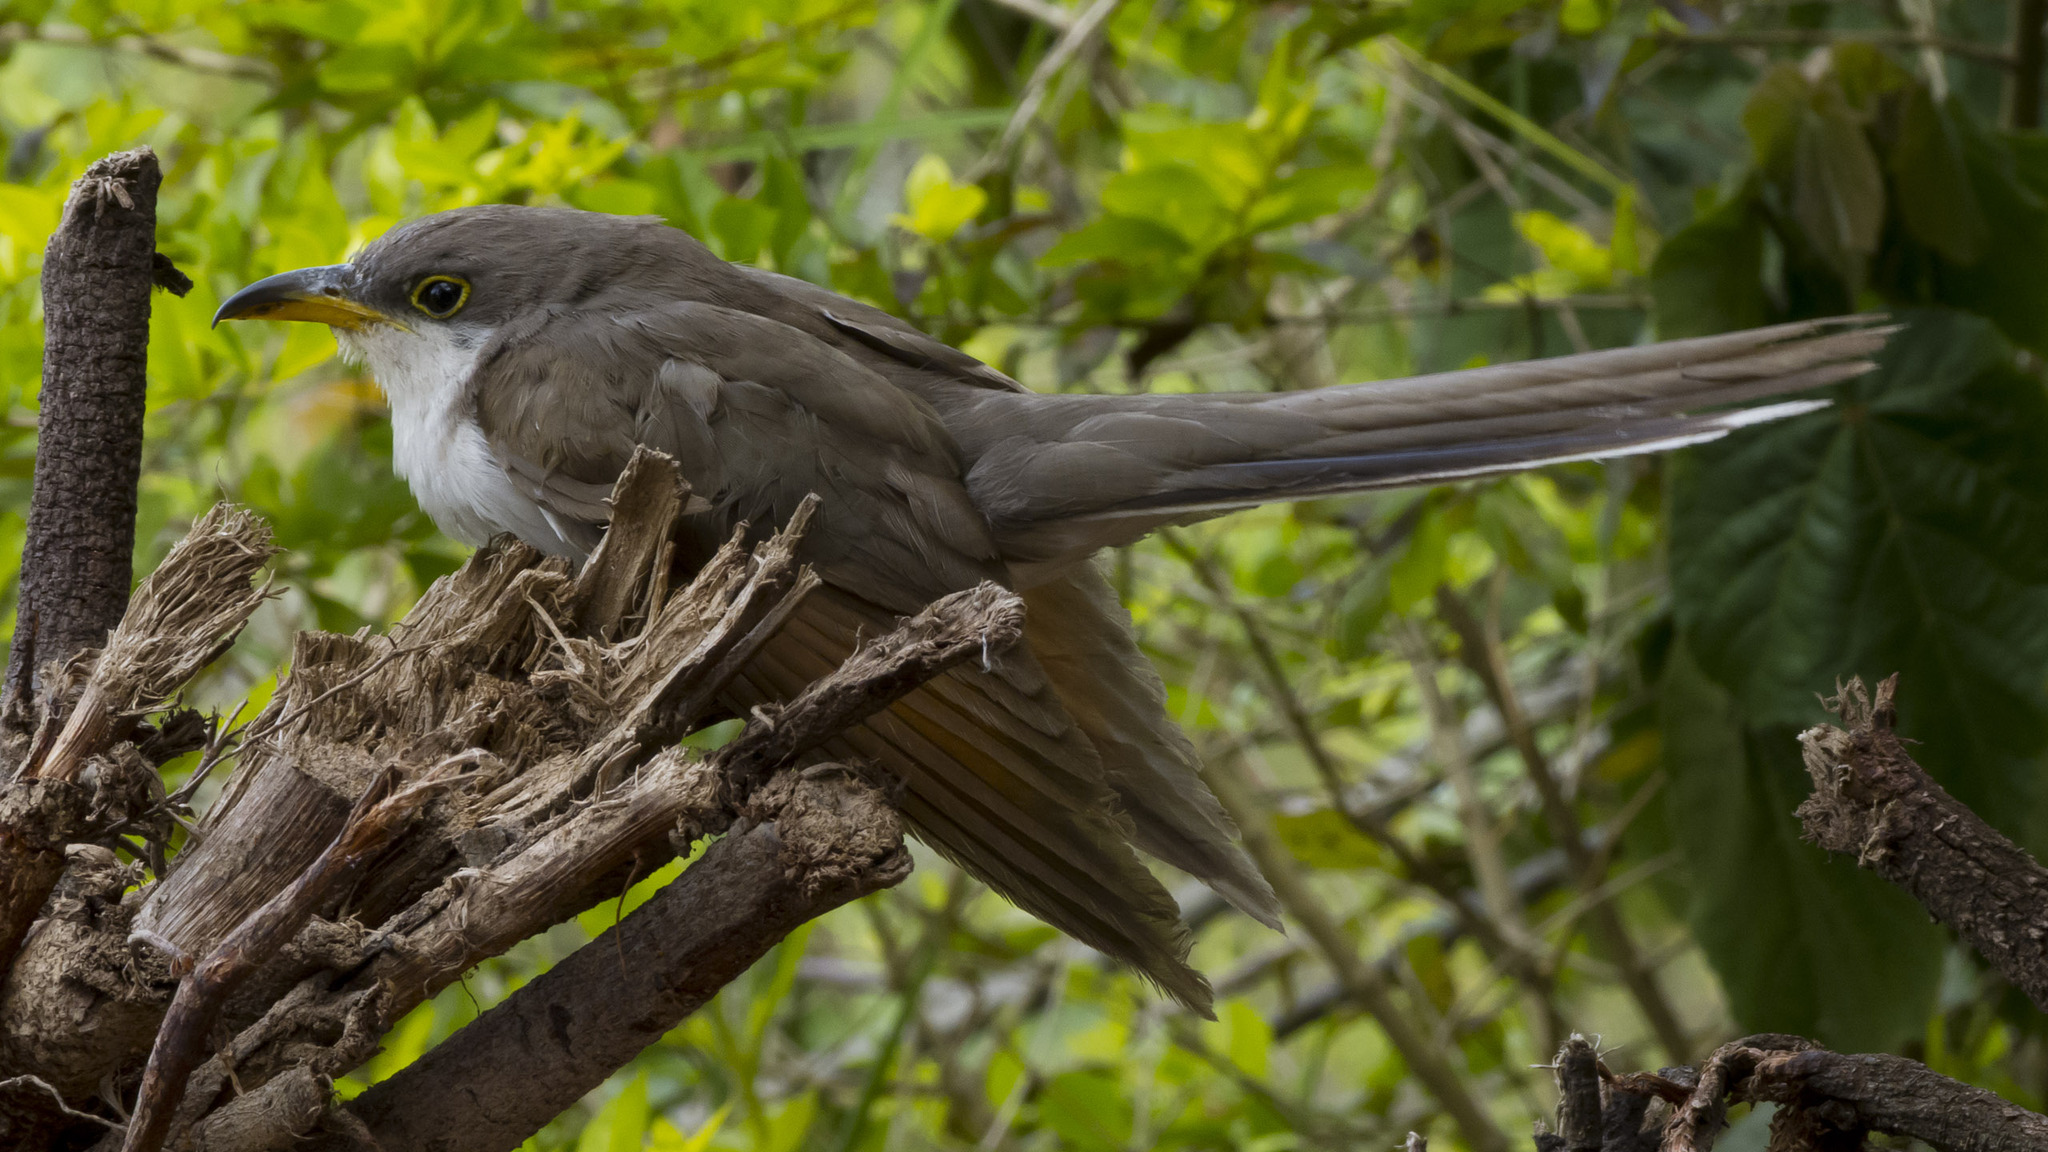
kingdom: Animalia
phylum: Chordata
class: Aves
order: Cuculiformes
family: Cuculidae
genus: Coccyzus
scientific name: Coccyzus americanus
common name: Yellow-billed cuckoo
